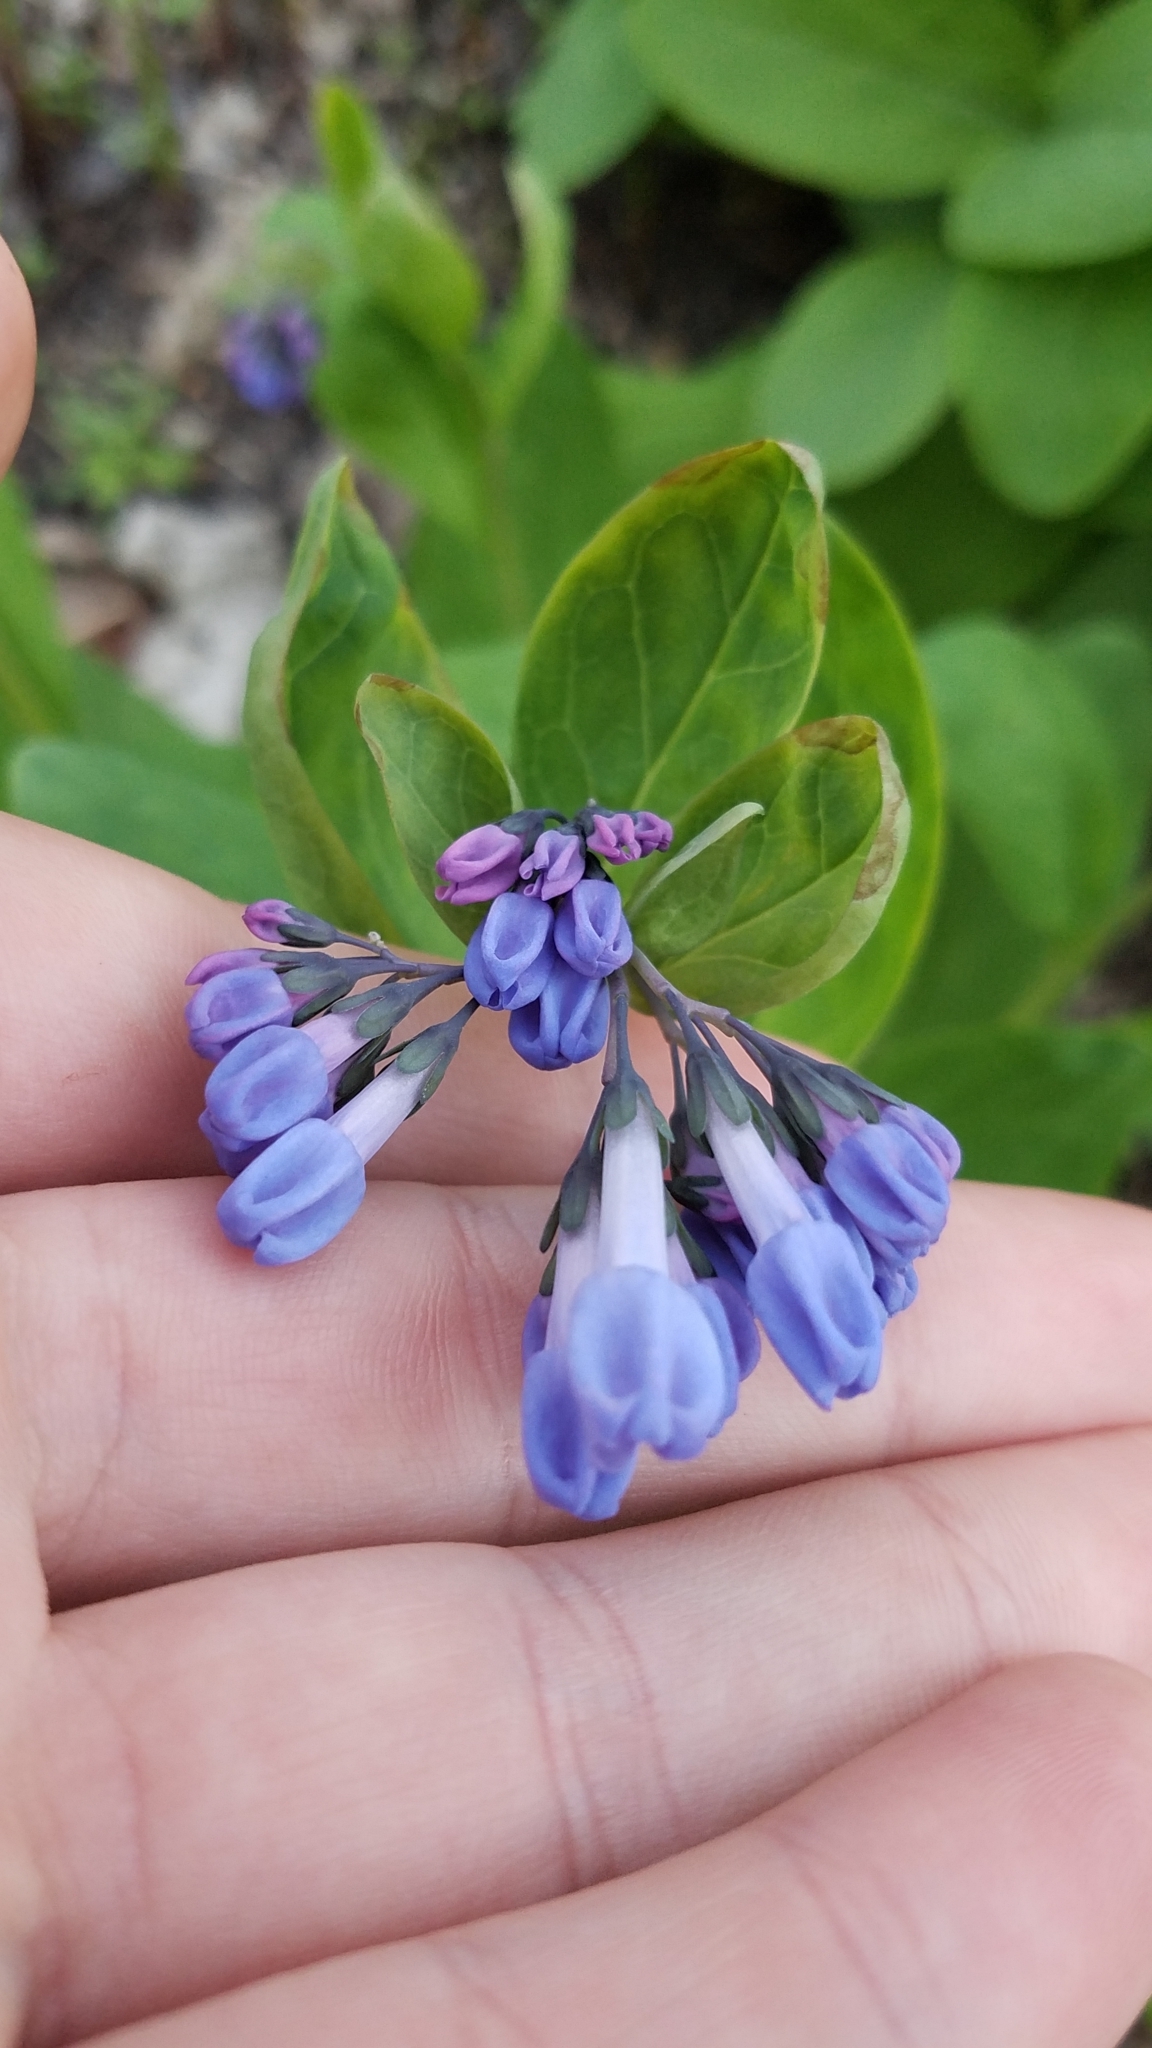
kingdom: Plantae
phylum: Tracheophyta
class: Magnoliopsida
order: Boraginales
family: Boraginaceae
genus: Mertensia
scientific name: Mertensia virginica
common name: Virginia bluebells
